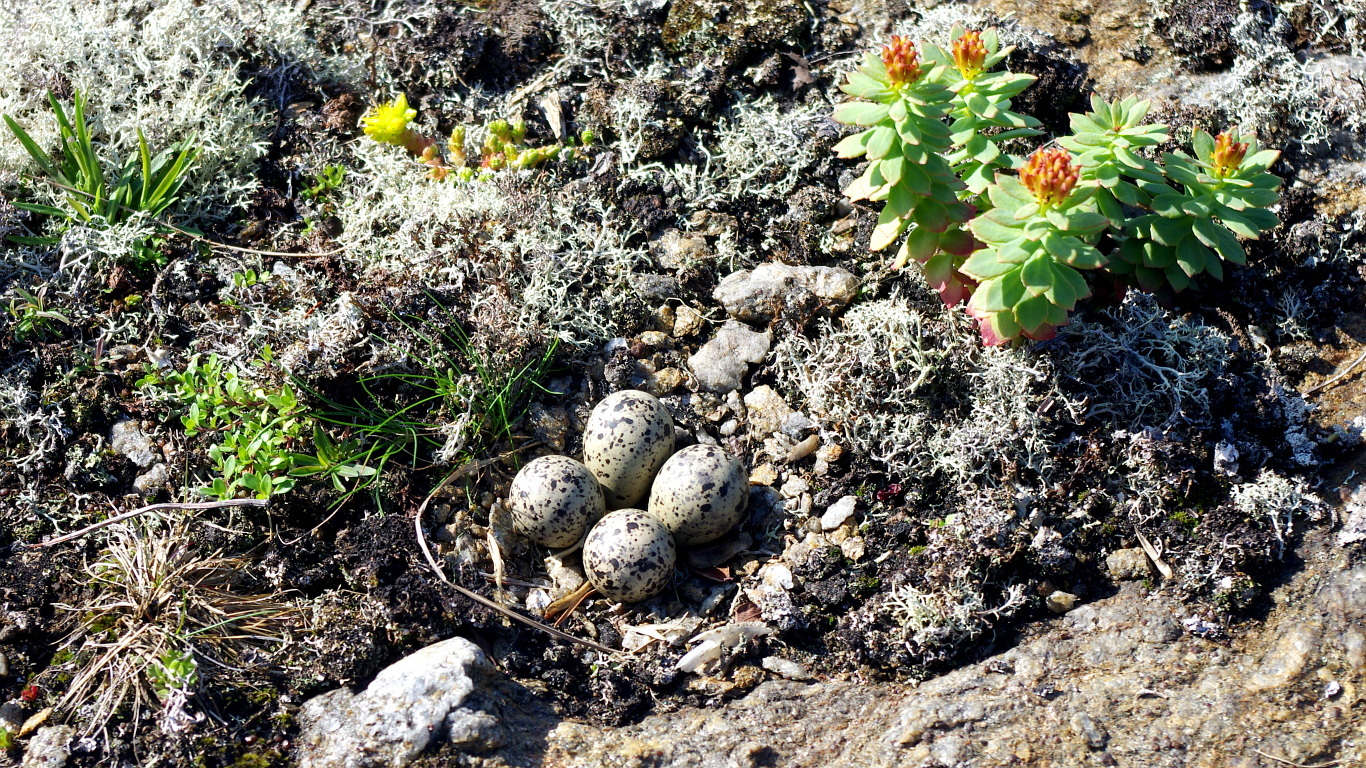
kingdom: Animalia
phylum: Chordata
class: Aves
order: Charadriiformes
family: Charadriidae
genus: Charadrius
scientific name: Charadrius hiaticula
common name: Common ringed plover
